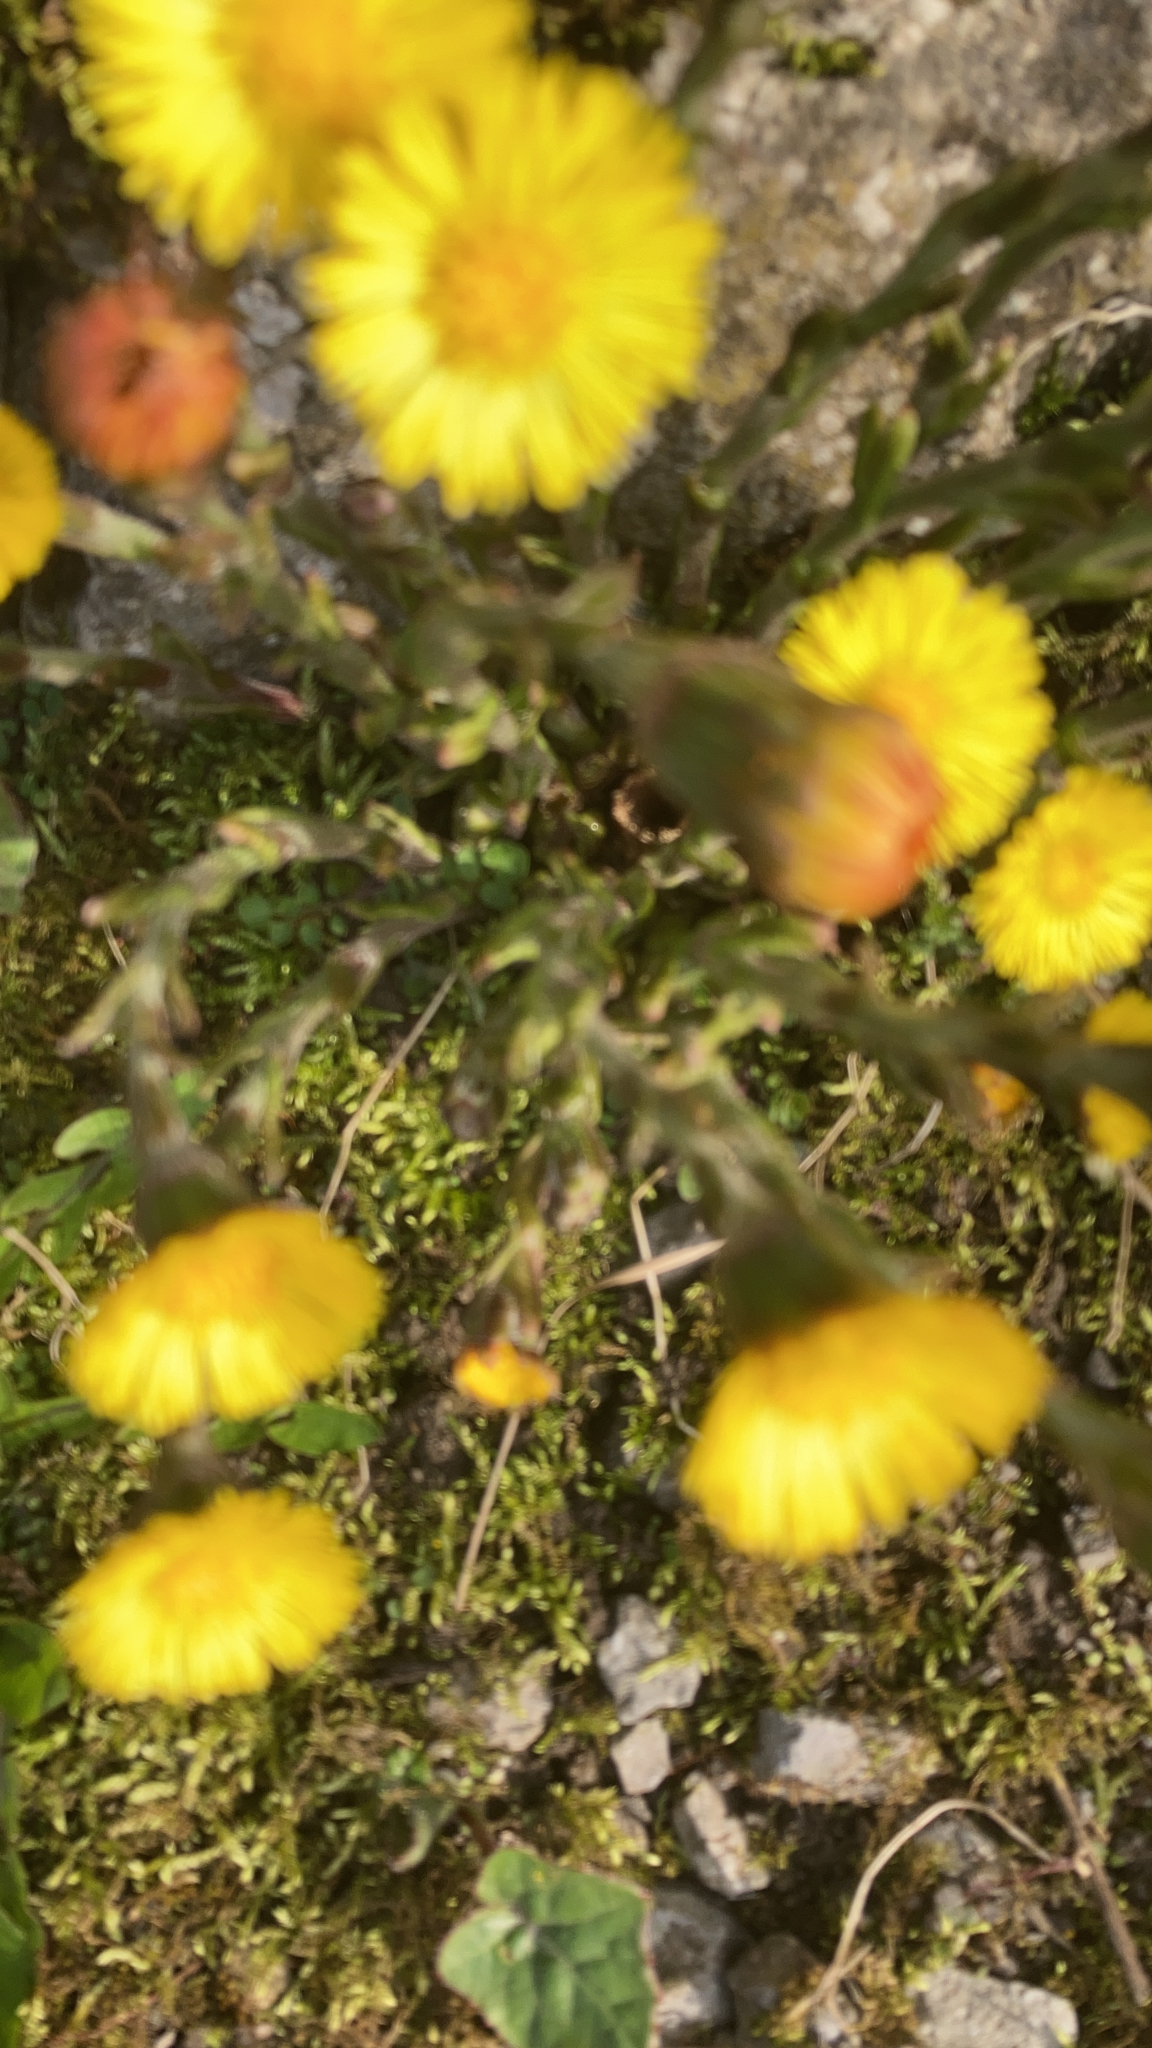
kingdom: Plantae
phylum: Tracheophyta
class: Magnoliopsida
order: Asterales
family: Asteraceae
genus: Tussilago
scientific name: Tussilago farfara
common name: Coltsfoot
